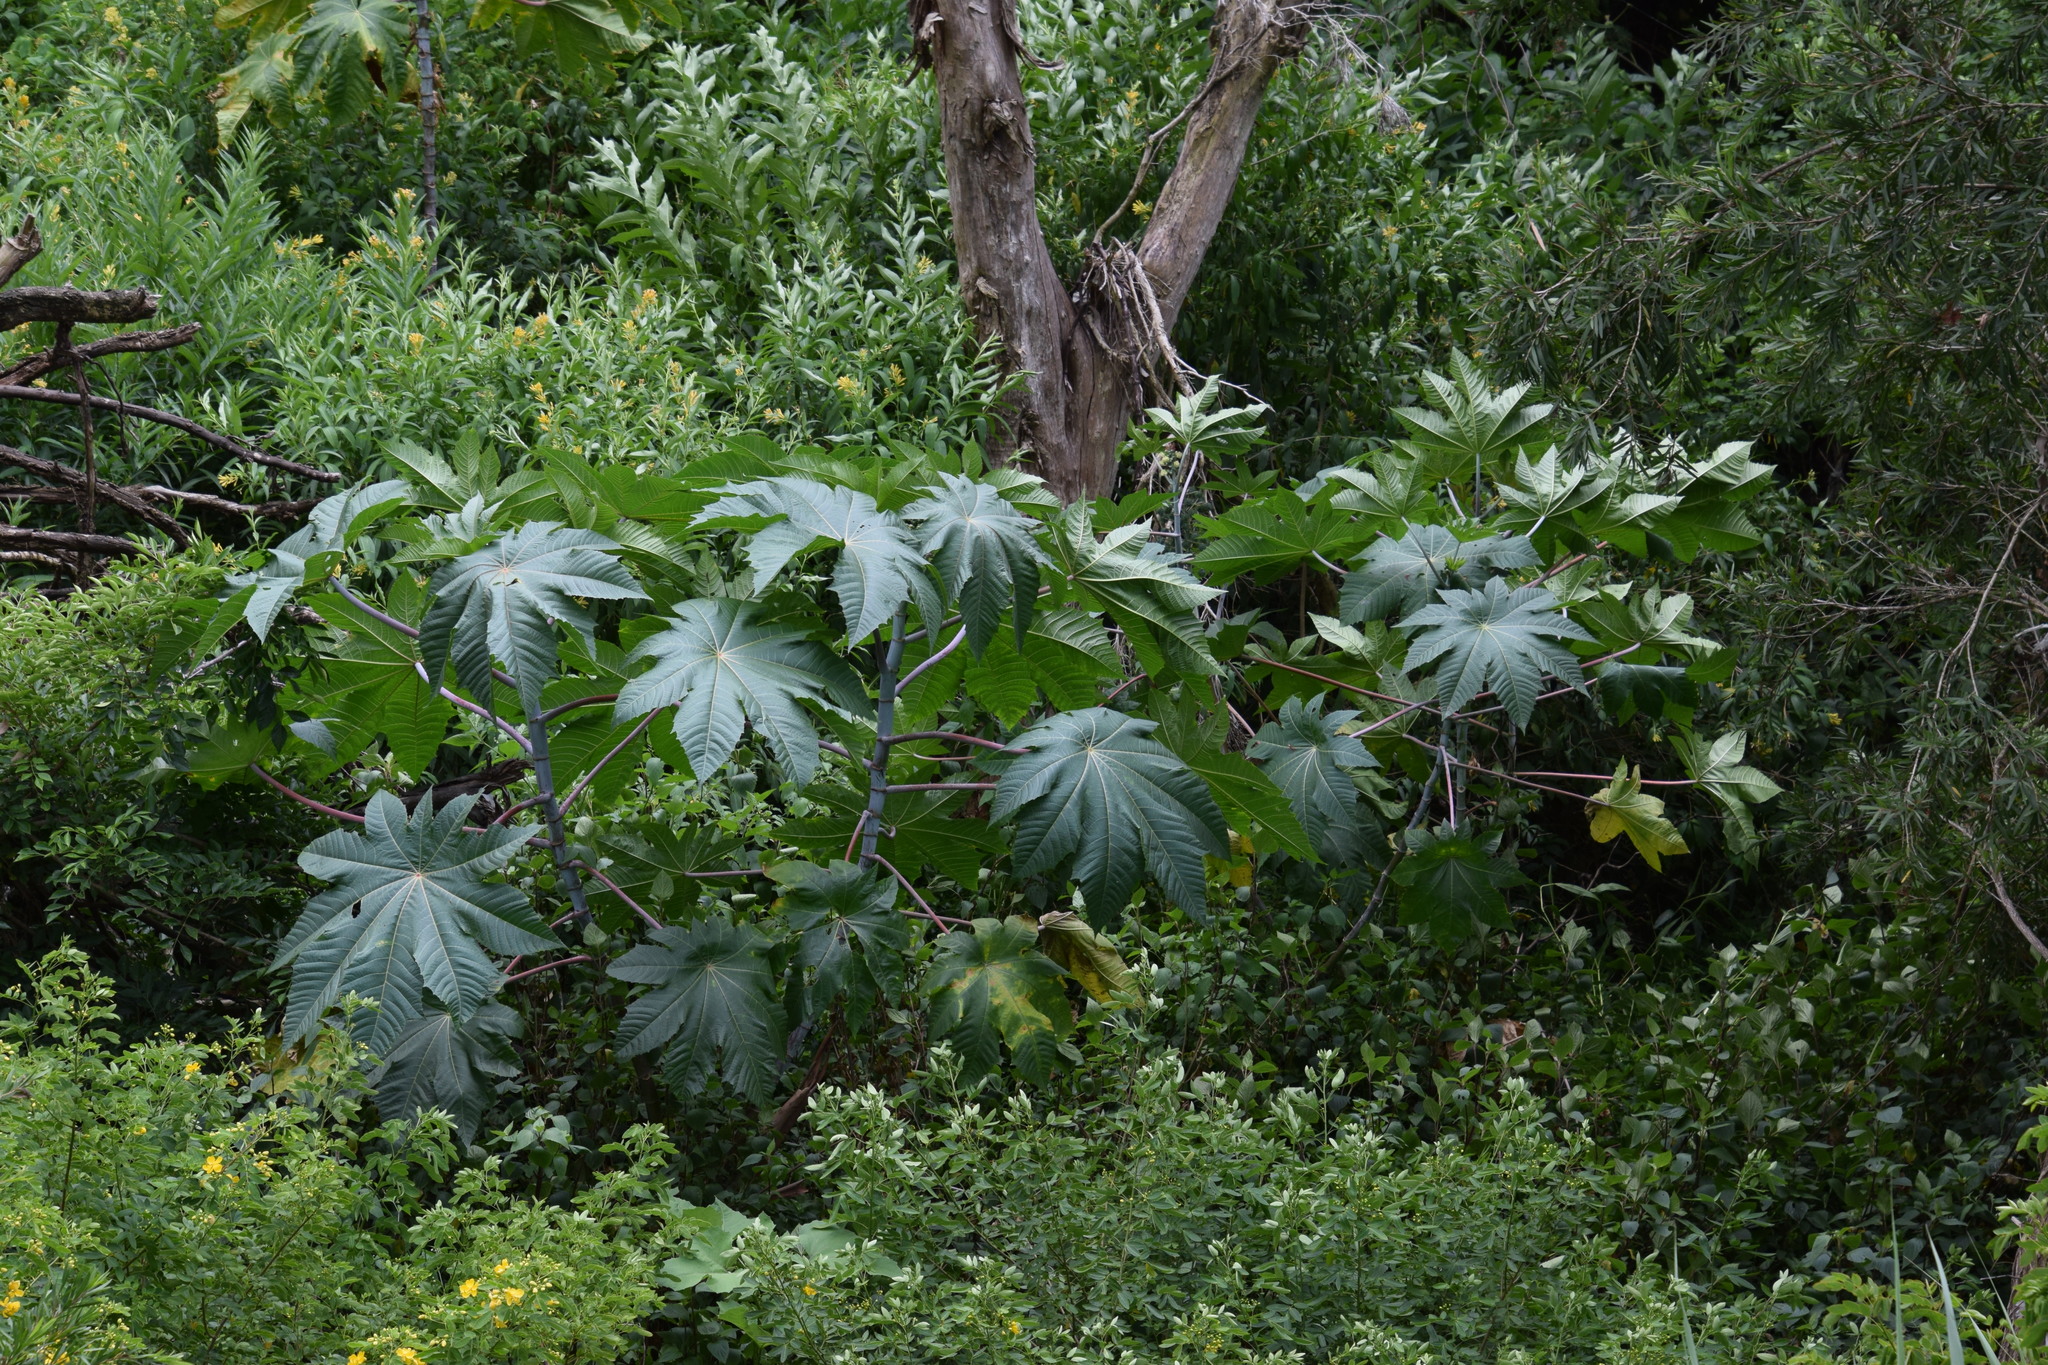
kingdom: Plantae
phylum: Tracheophyta
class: Magnoliopsida
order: Malpighiales
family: Euphorbiaceae
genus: Ricinus
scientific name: Ricinus communis
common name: Castor-oil-plant
